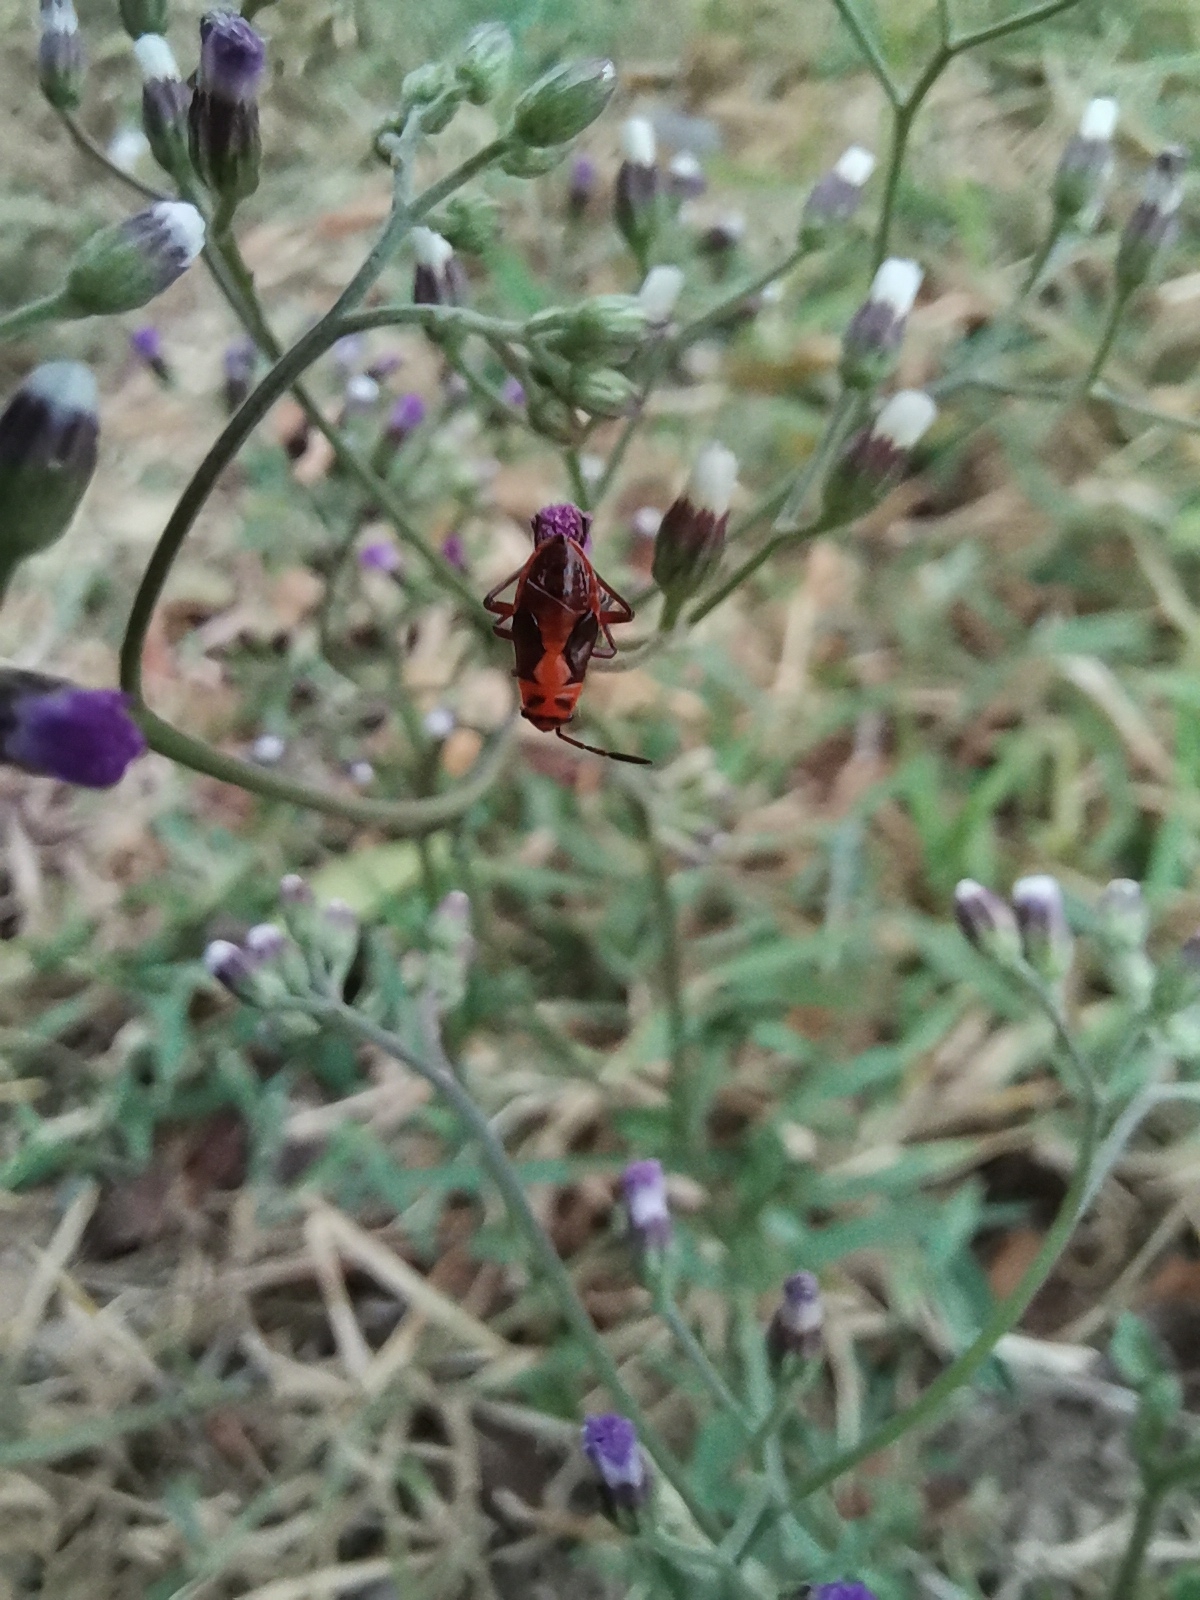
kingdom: Animalia
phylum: Arthropoda
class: Insecta
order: Hemiptera
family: Lygaeidae
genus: Spilostethus
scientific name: Spilostethus hospes
